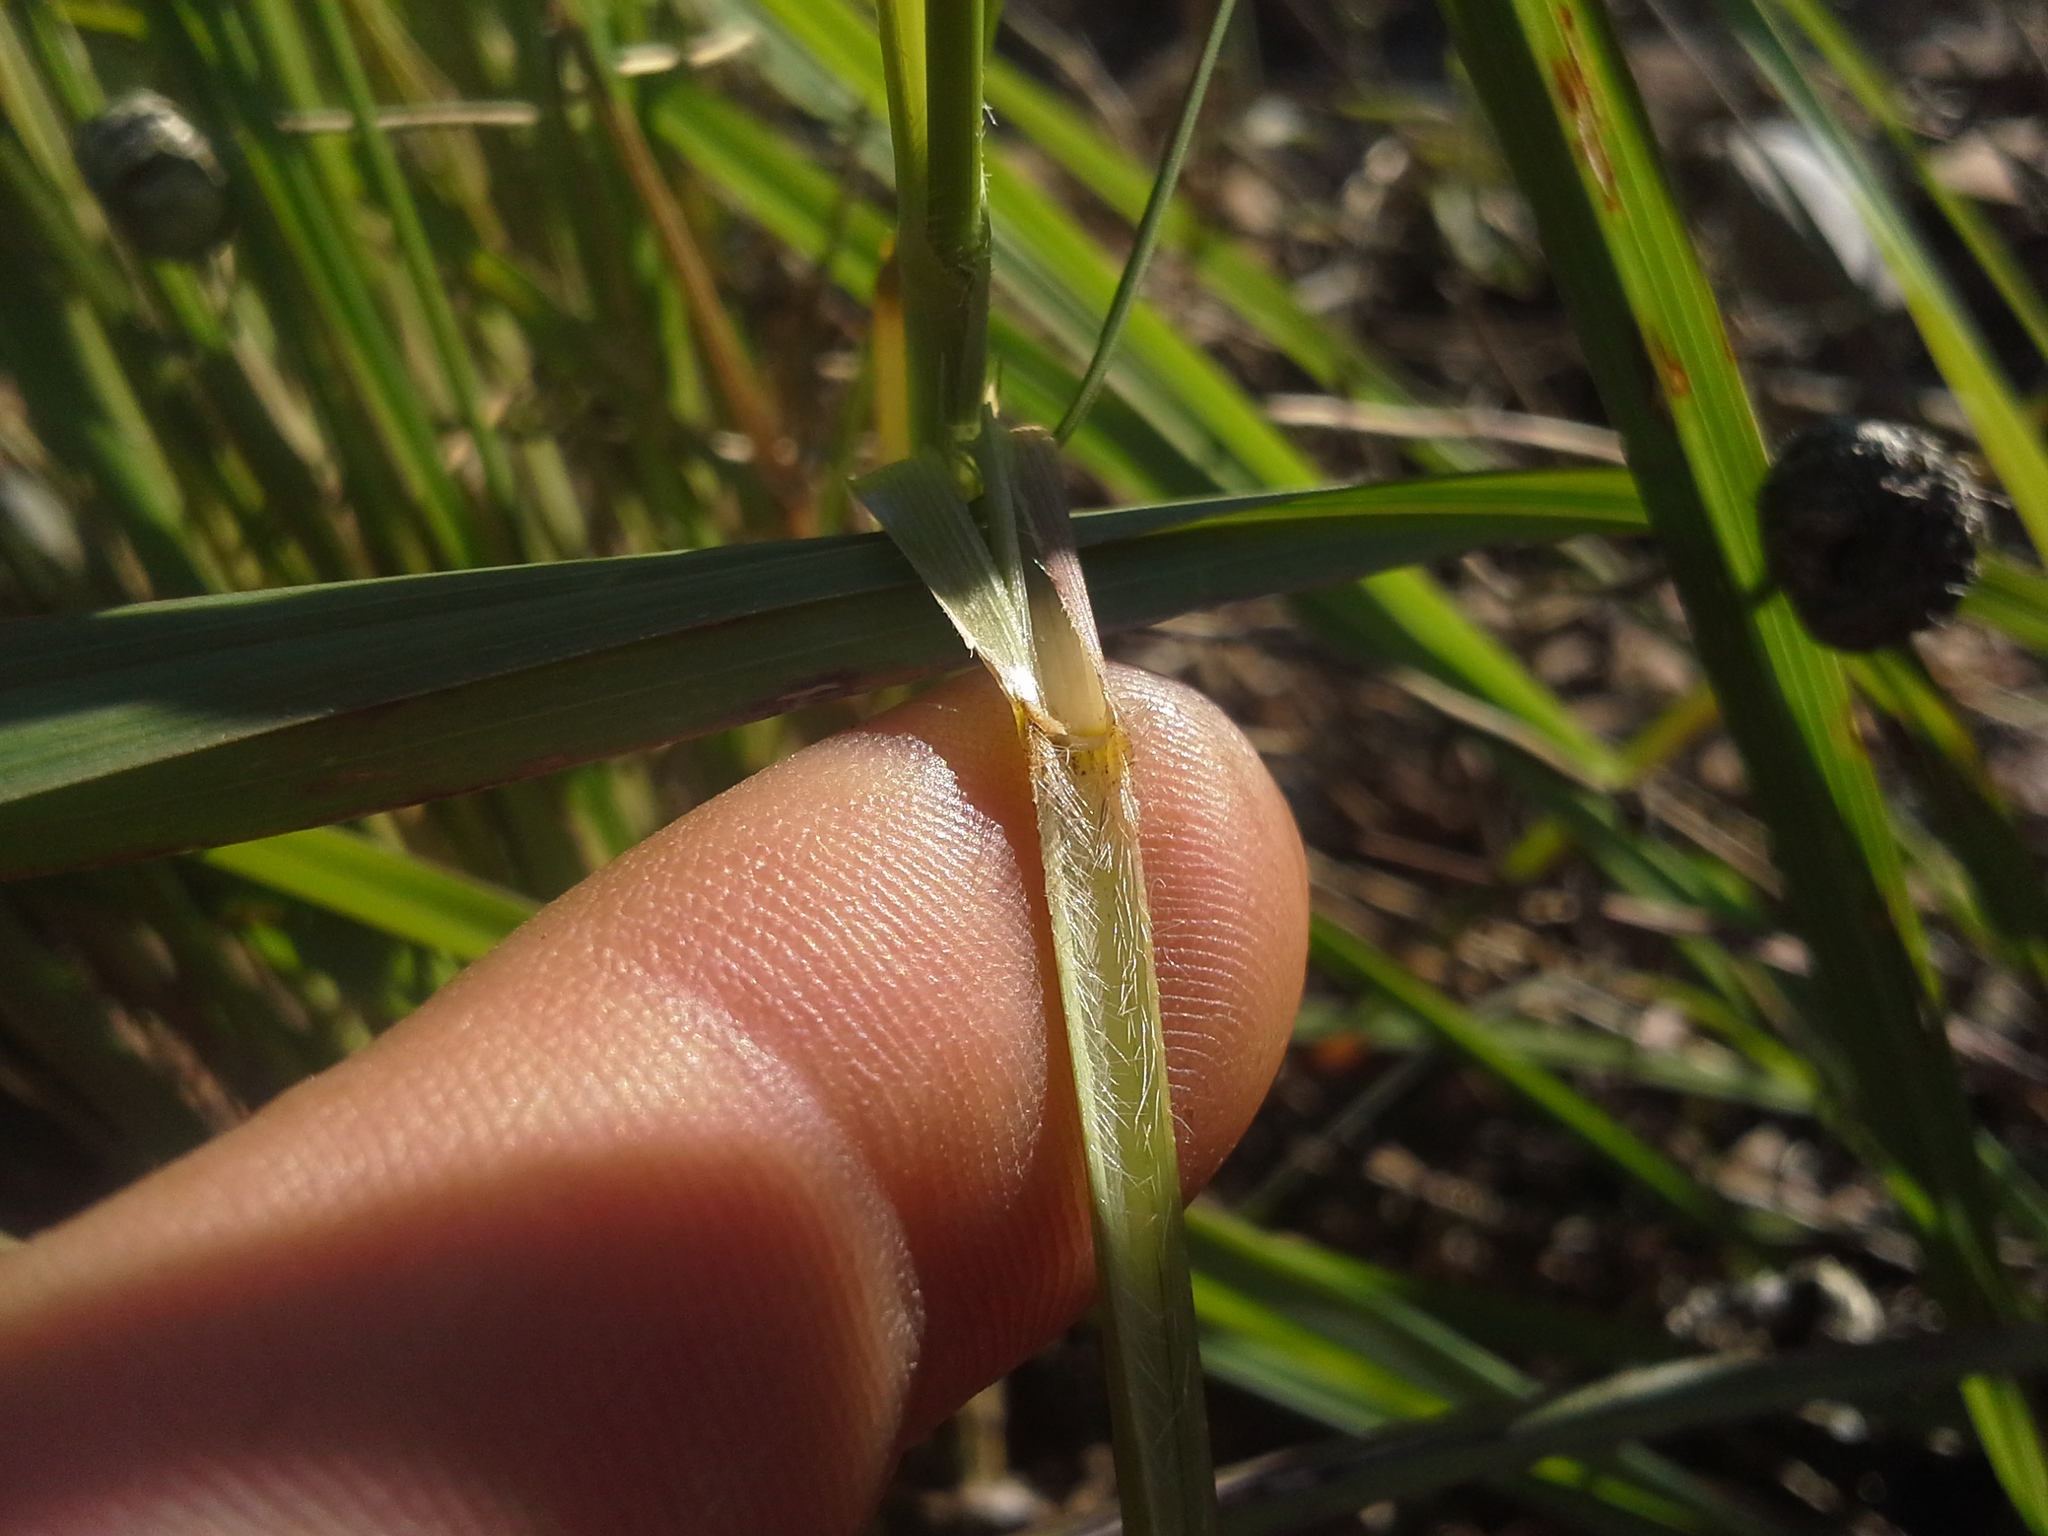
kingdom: Plantae
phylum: Tracheophyta
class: Liliopsida
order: Poales
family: Poaceae
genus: Cenchrus
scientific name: Cenchrus caudatus
